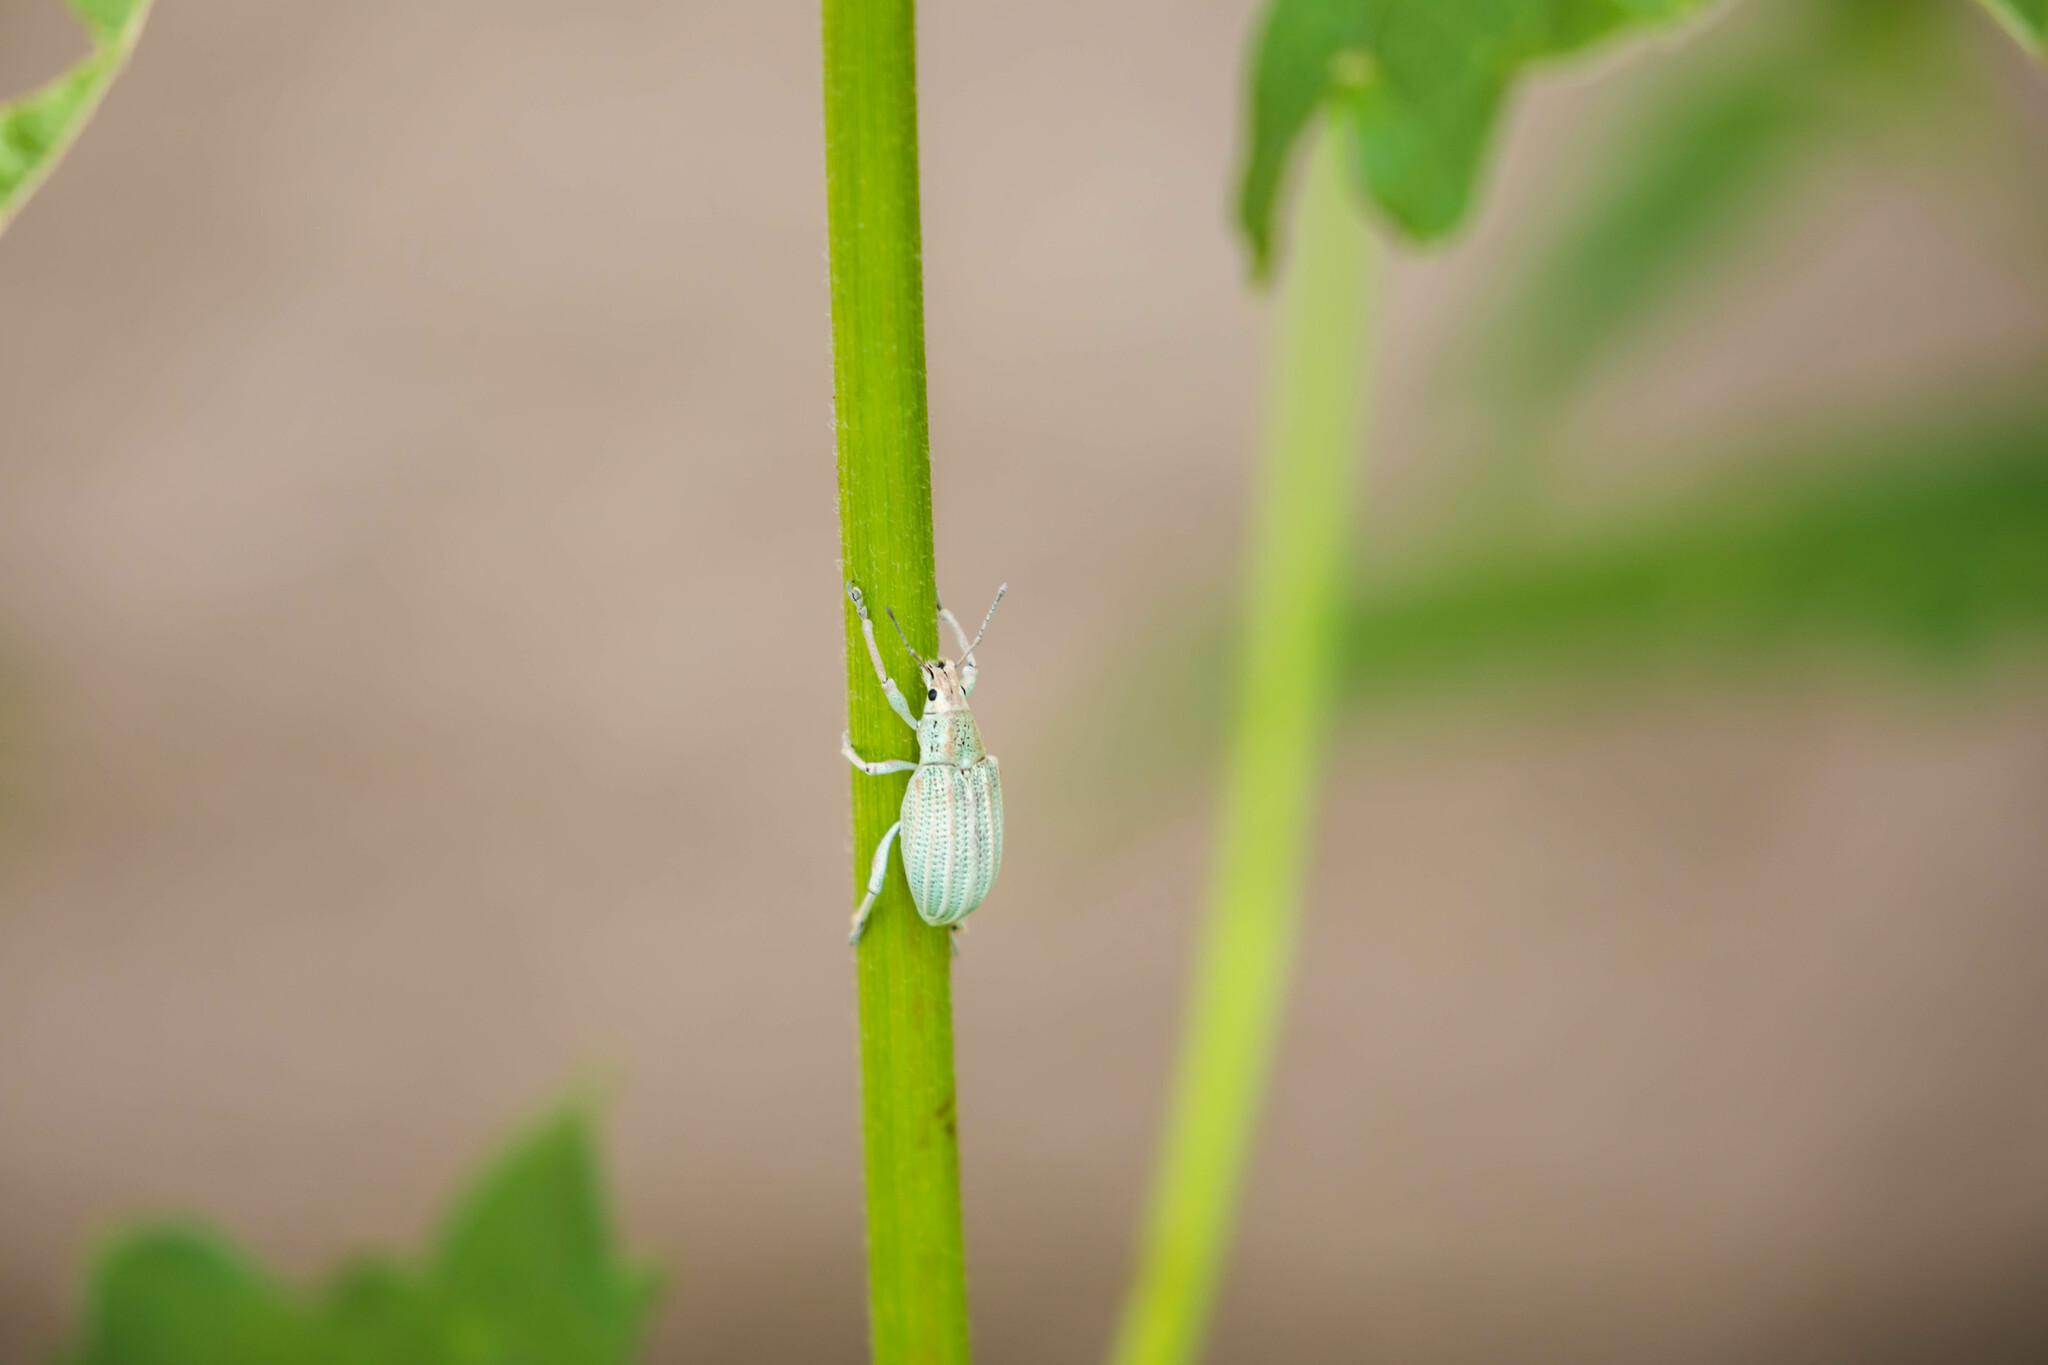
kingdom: Animalia
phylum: Arthropoda
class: Insecta
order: Coleoptera
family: Curculionidae
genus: Compsus
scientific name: Compsus auricephalus
